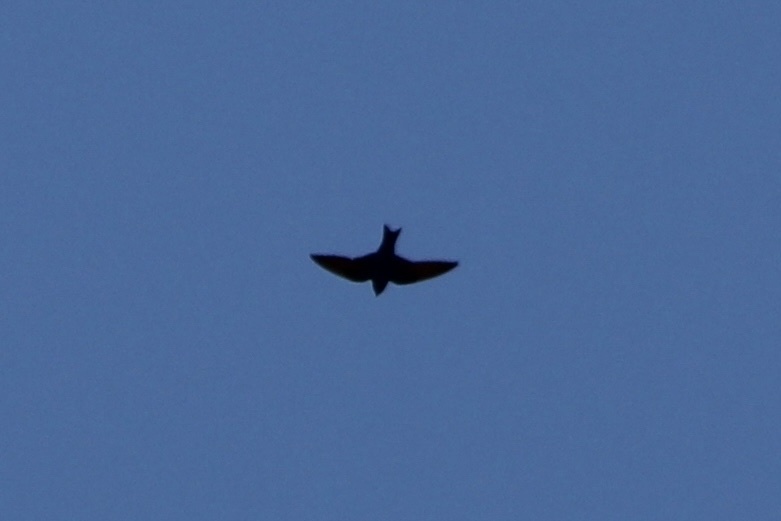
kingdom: Animalia
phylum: Chordata
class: Aves
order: Passeriformes
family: Hirundinidae
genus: Progne
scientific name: Progne subis
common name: Purple martin
